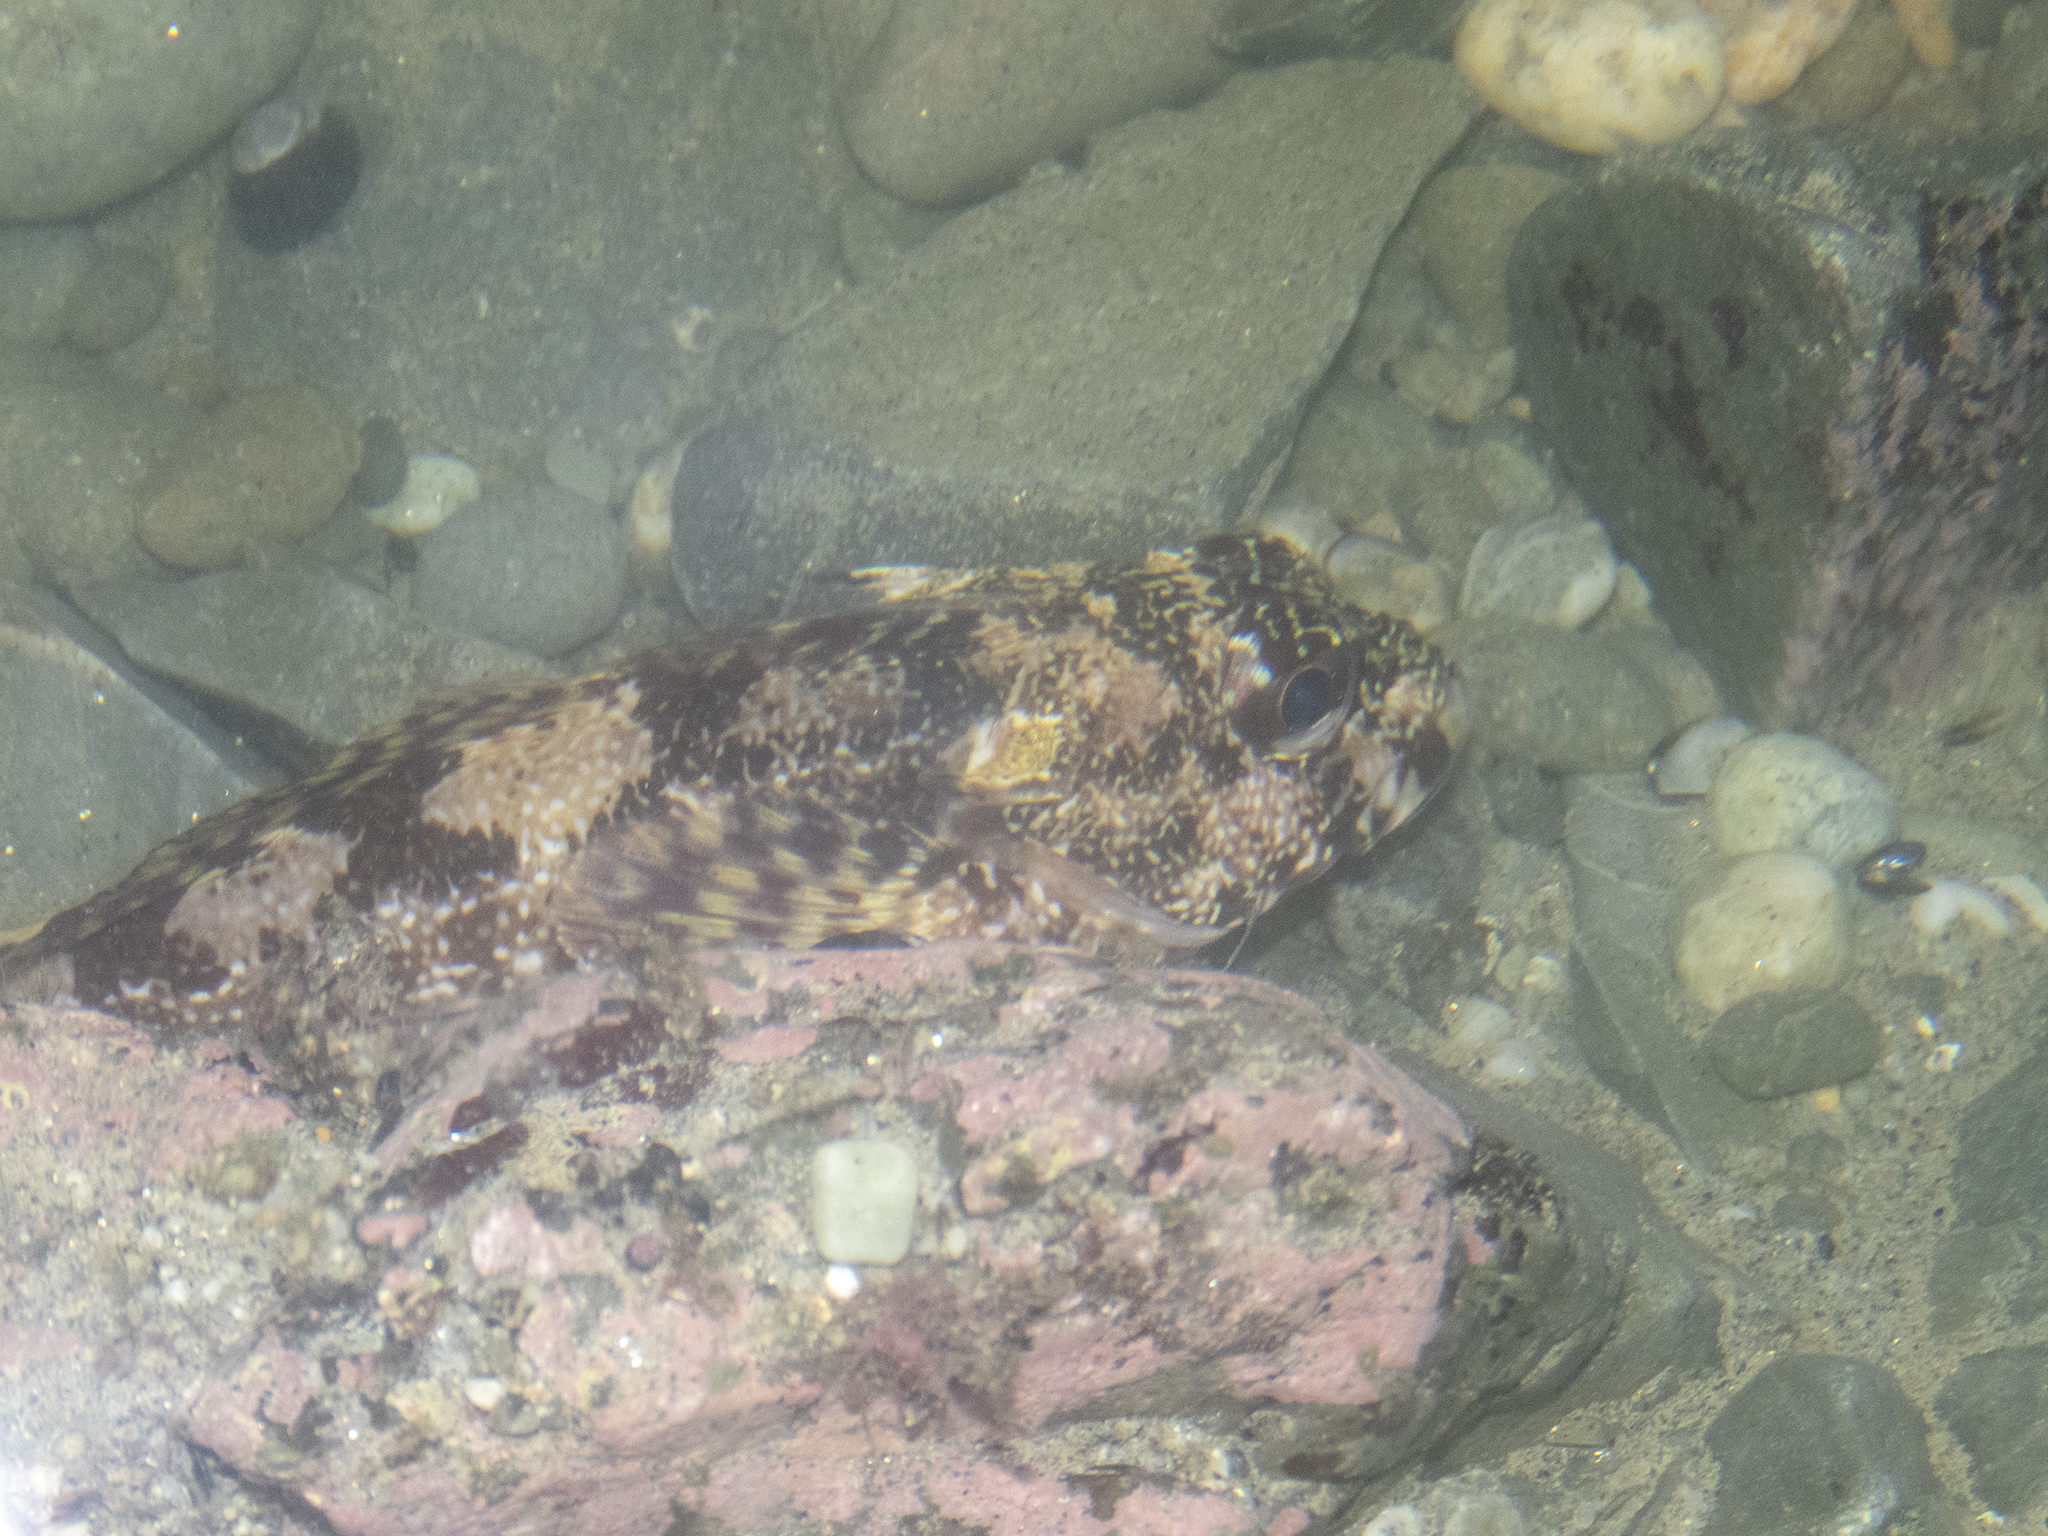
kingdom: Animalia
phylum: Chordata
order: Perciformes
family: Bovichtidae
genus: Bovichtus
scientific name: Bovichtus variegatus
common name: Thornfish
